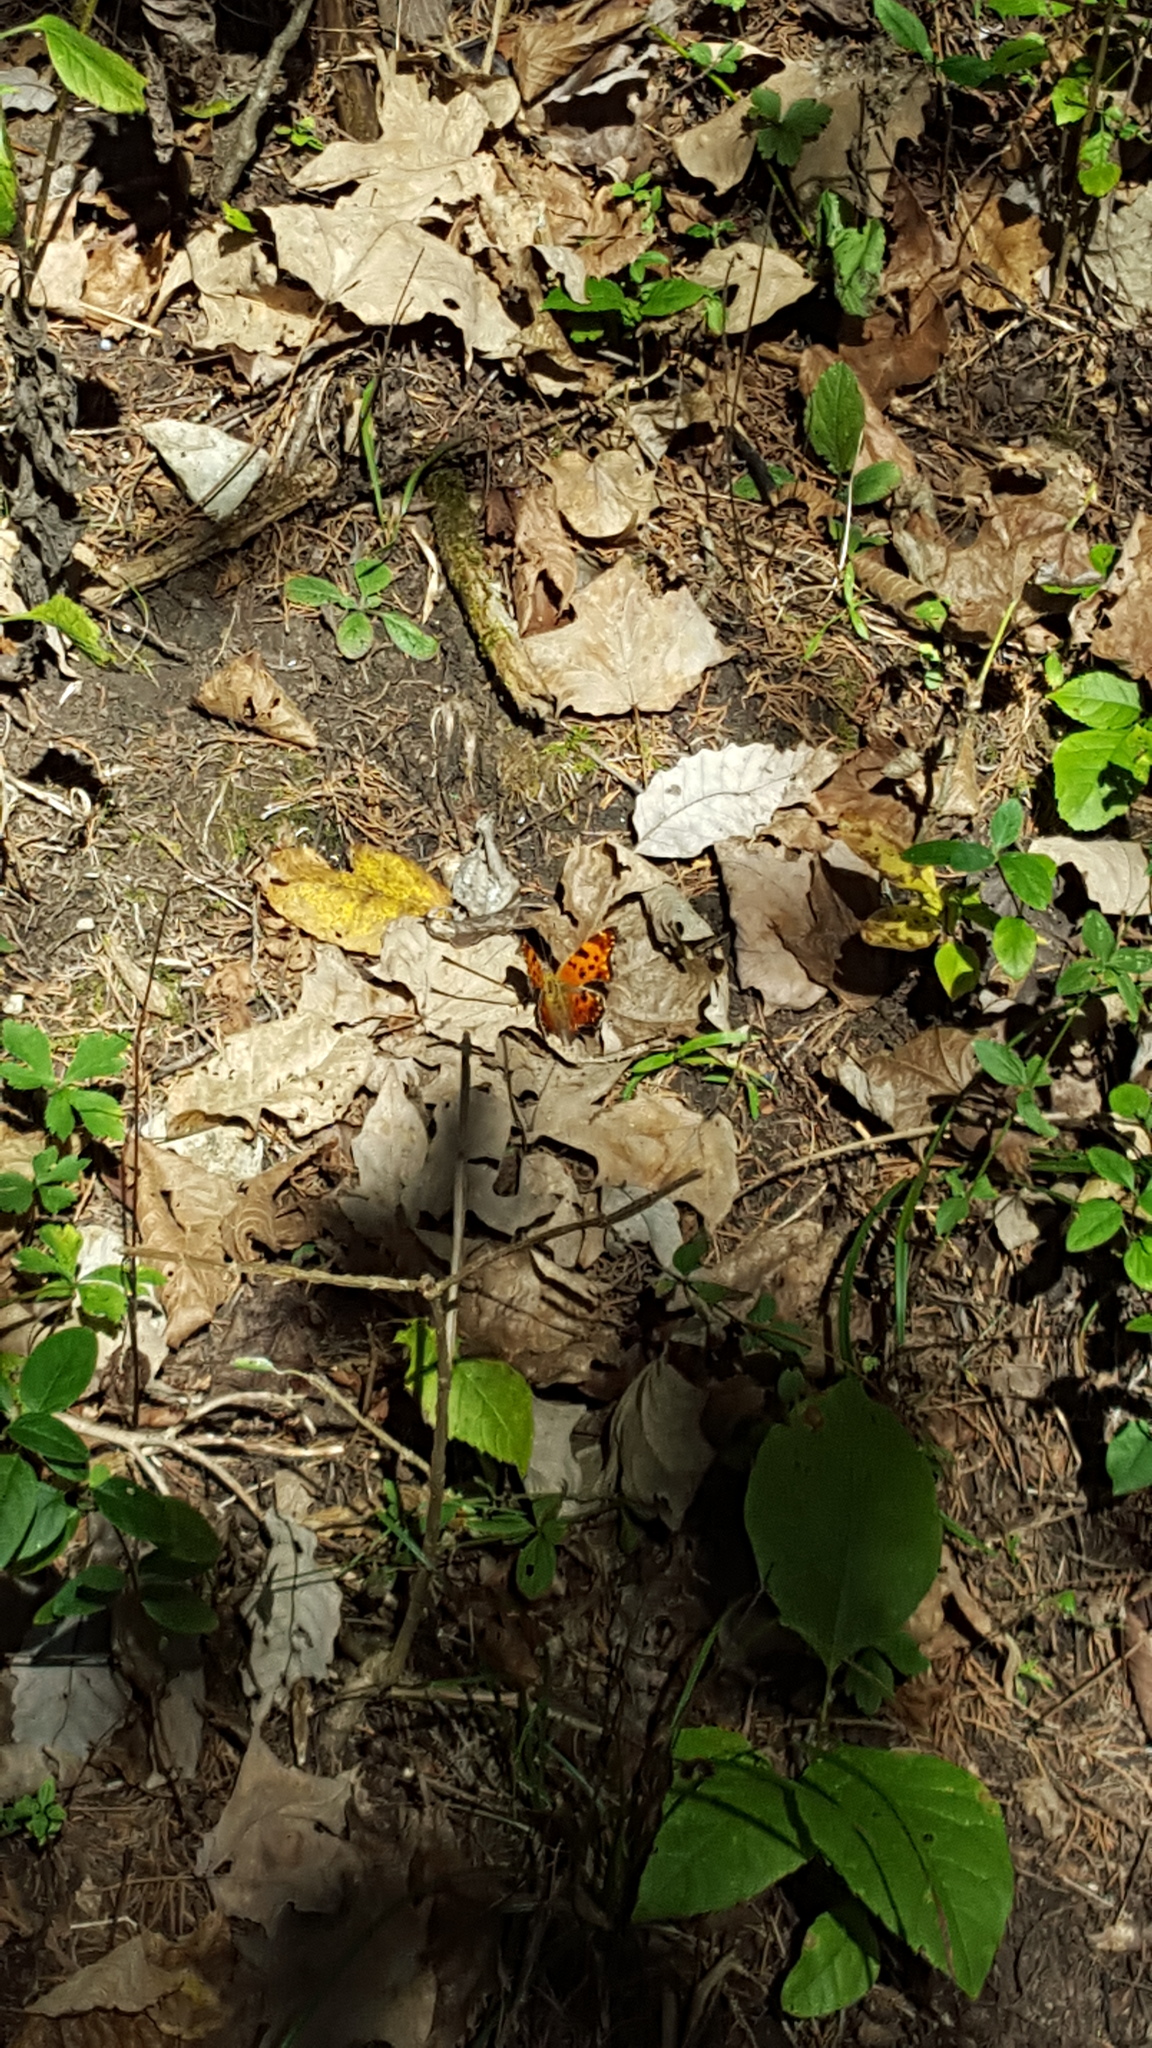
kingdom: Animalia
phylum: Arthropoda
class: Insecta
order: Lepidoptera
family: Nymphalidae
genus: Polygonia
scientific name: Polygonia comma
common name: Eastern comma
